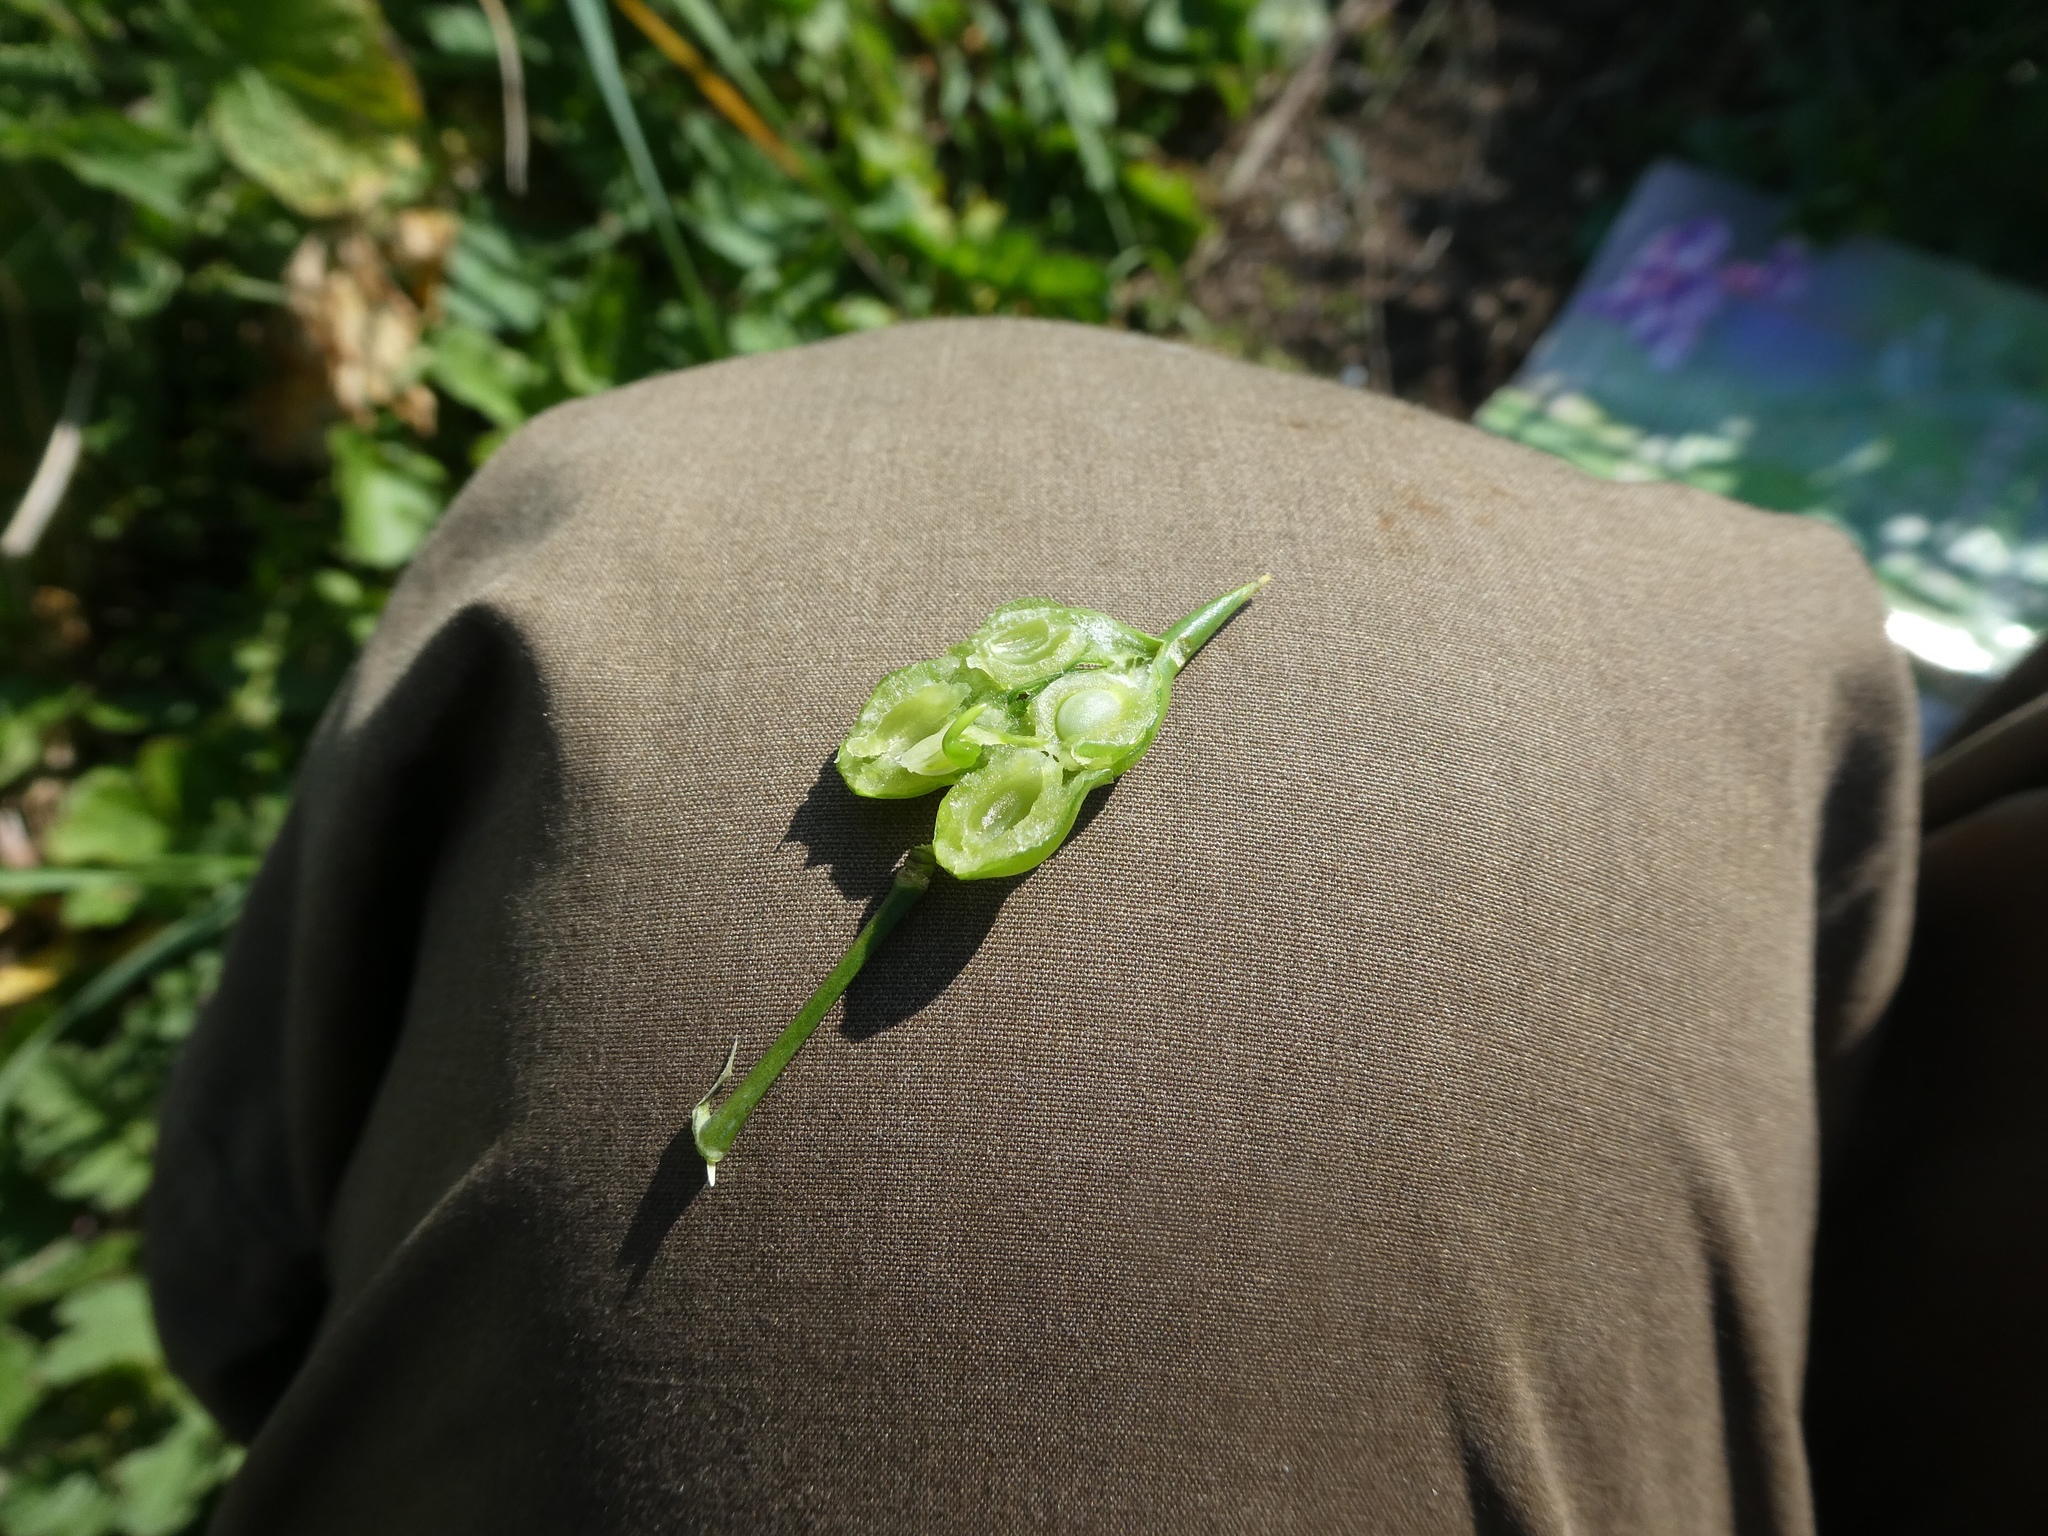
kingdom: Plantae
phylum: Tracheophyta
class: Magnoliopsida
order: Brassicales
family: Brassicaceae
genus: Raphanus
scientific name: Raphanus raphanistrum
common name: Wild radish
